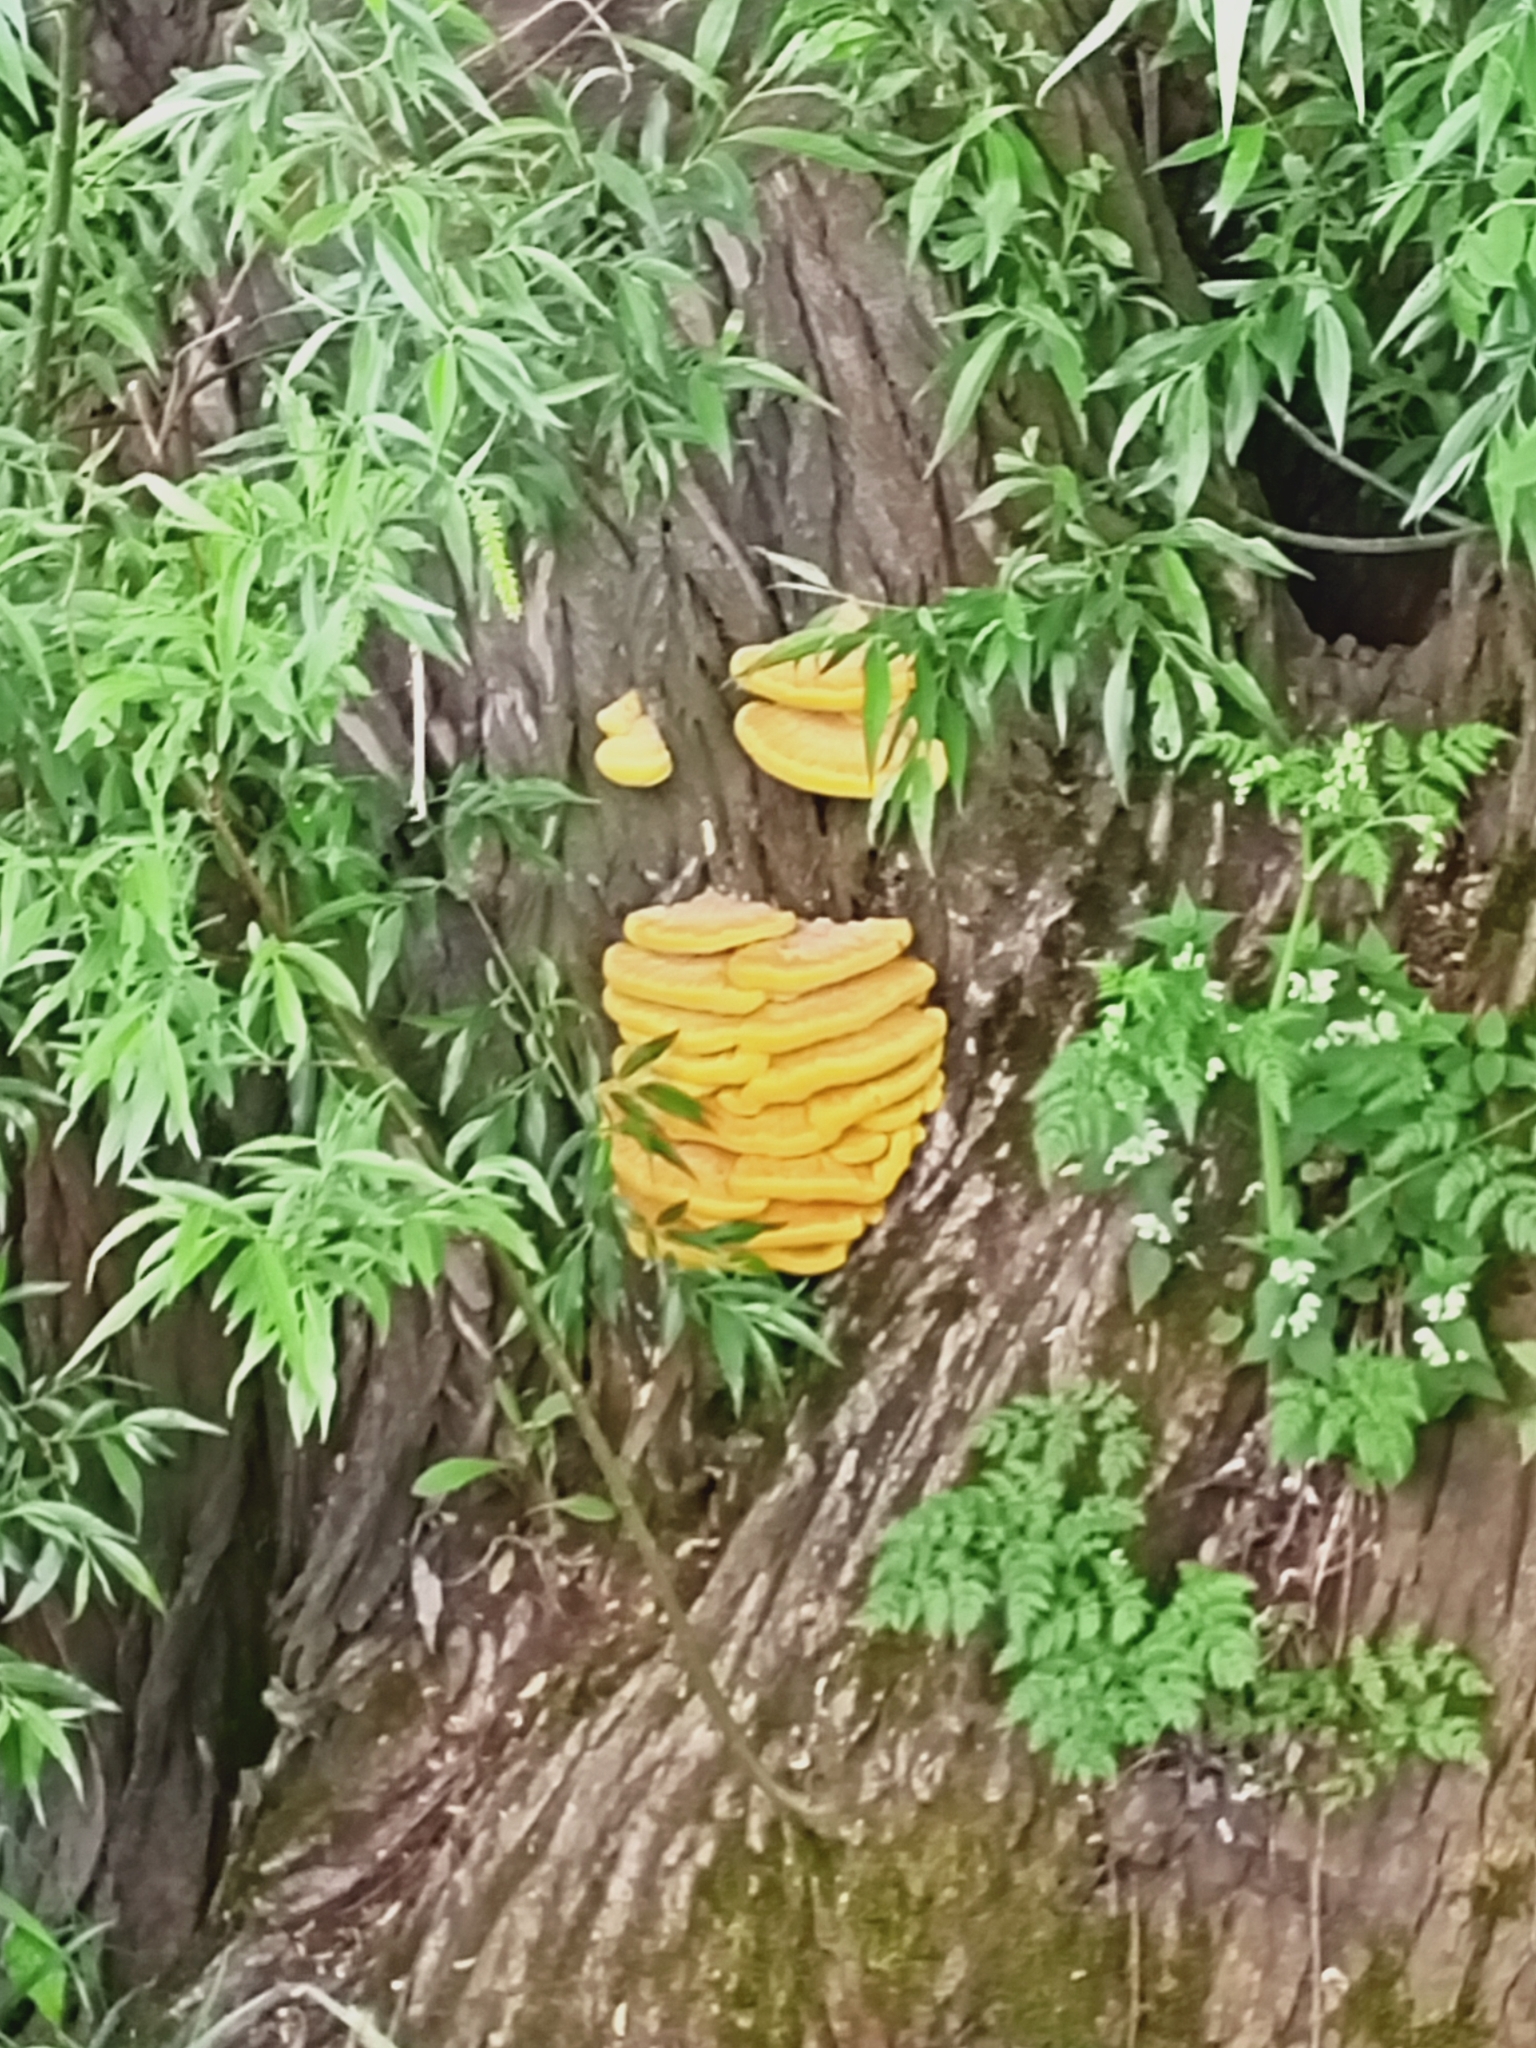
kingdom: Fungi
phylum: Basidiomycota
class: Agaricomycetes
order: Polyporales
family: Laetiporaceae
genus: Laetiporus
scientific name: Laetiporus sulphureus
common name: Chicken of the woods
